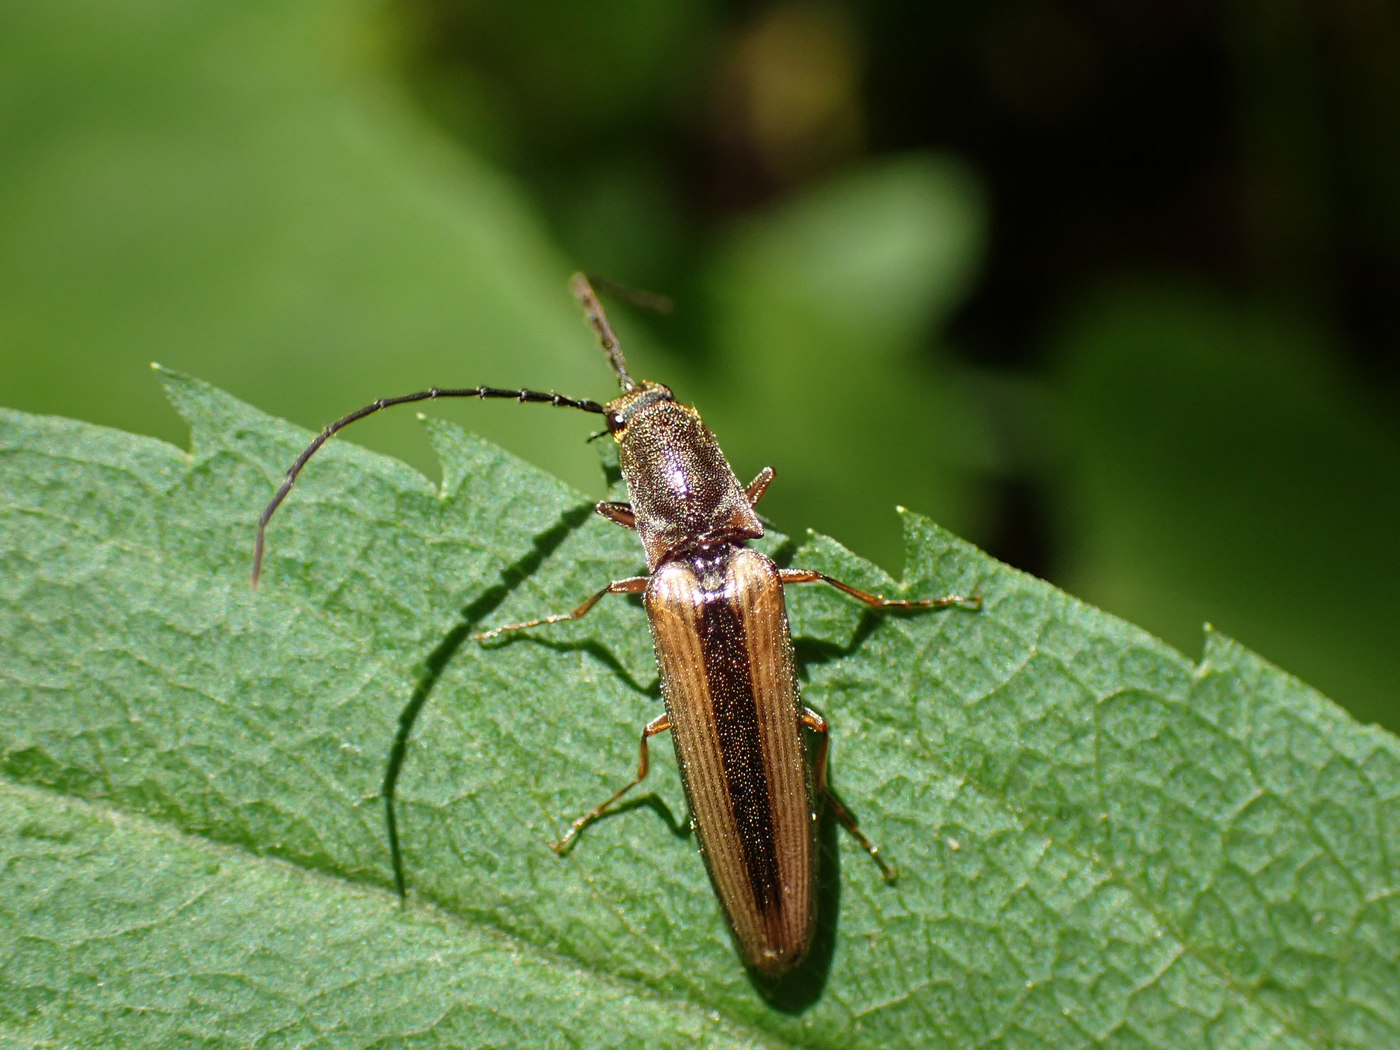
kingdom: Animalia
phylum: Arthropoda
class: Insecta
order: Coleoptera
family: Elateridae
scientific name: Elateridae
